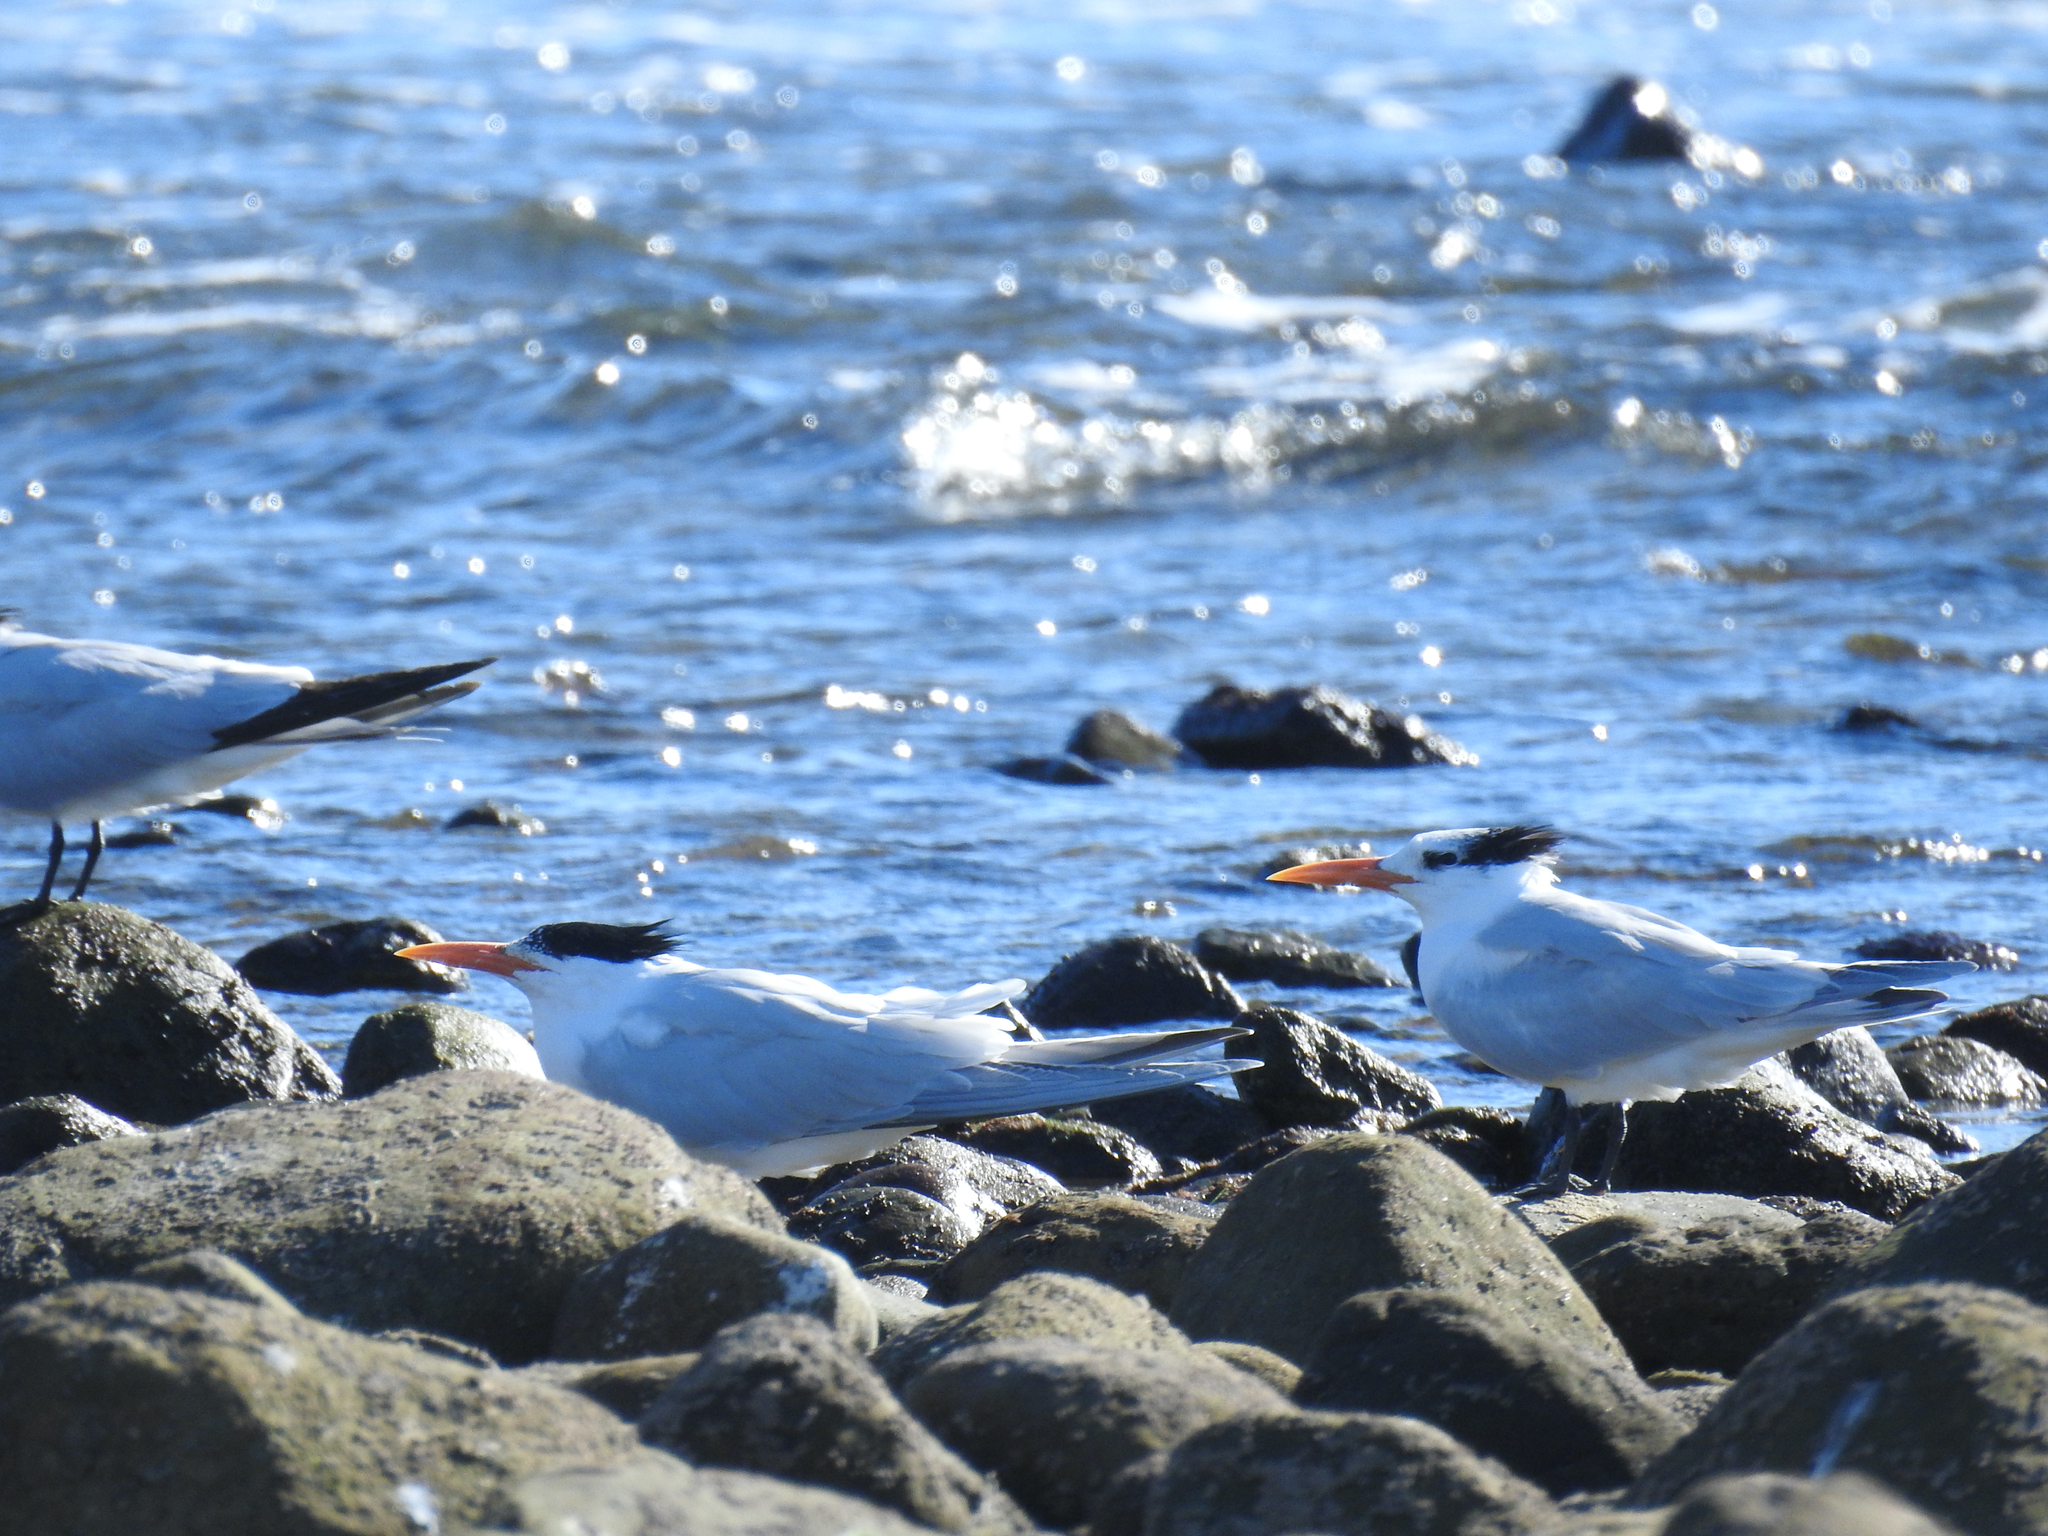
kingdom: Animalia
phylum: Chordata
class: Aves
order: Charadriiformes
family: Laridae
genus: Thalasseus
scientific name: Thalasseus maximus
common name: Royal tern
